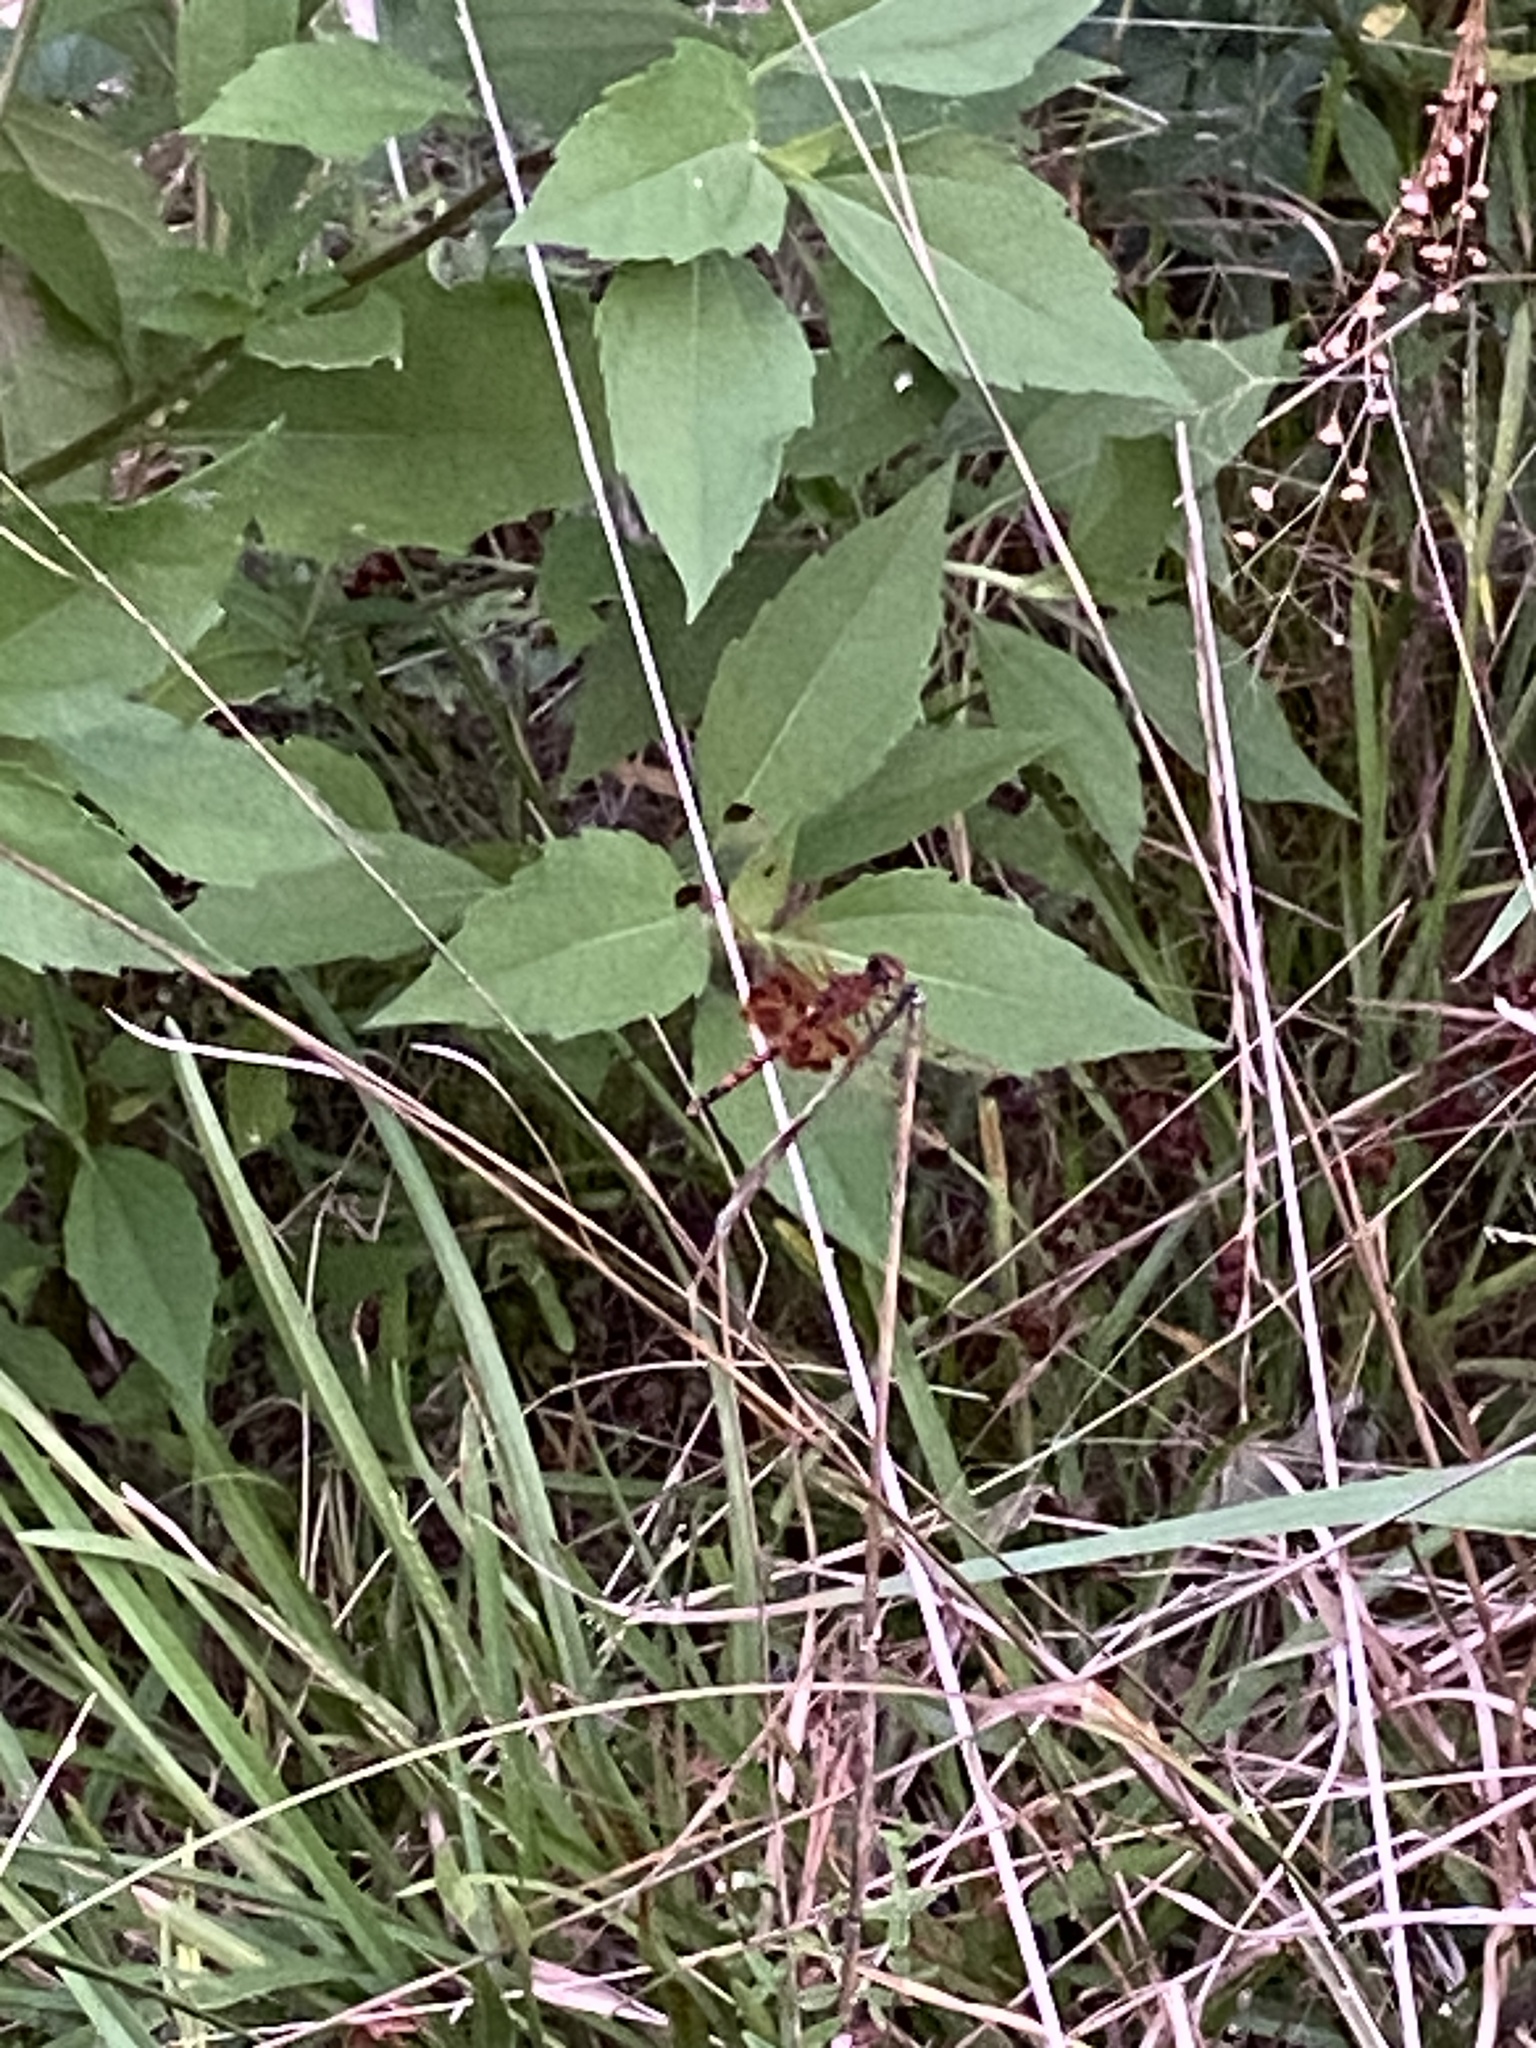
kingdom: Animalia
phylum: Arthropoda
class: Insecta
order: Odonata
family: Libellulidae
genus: Celithemis
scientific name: Celithemis elisa
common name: Calico pennant
